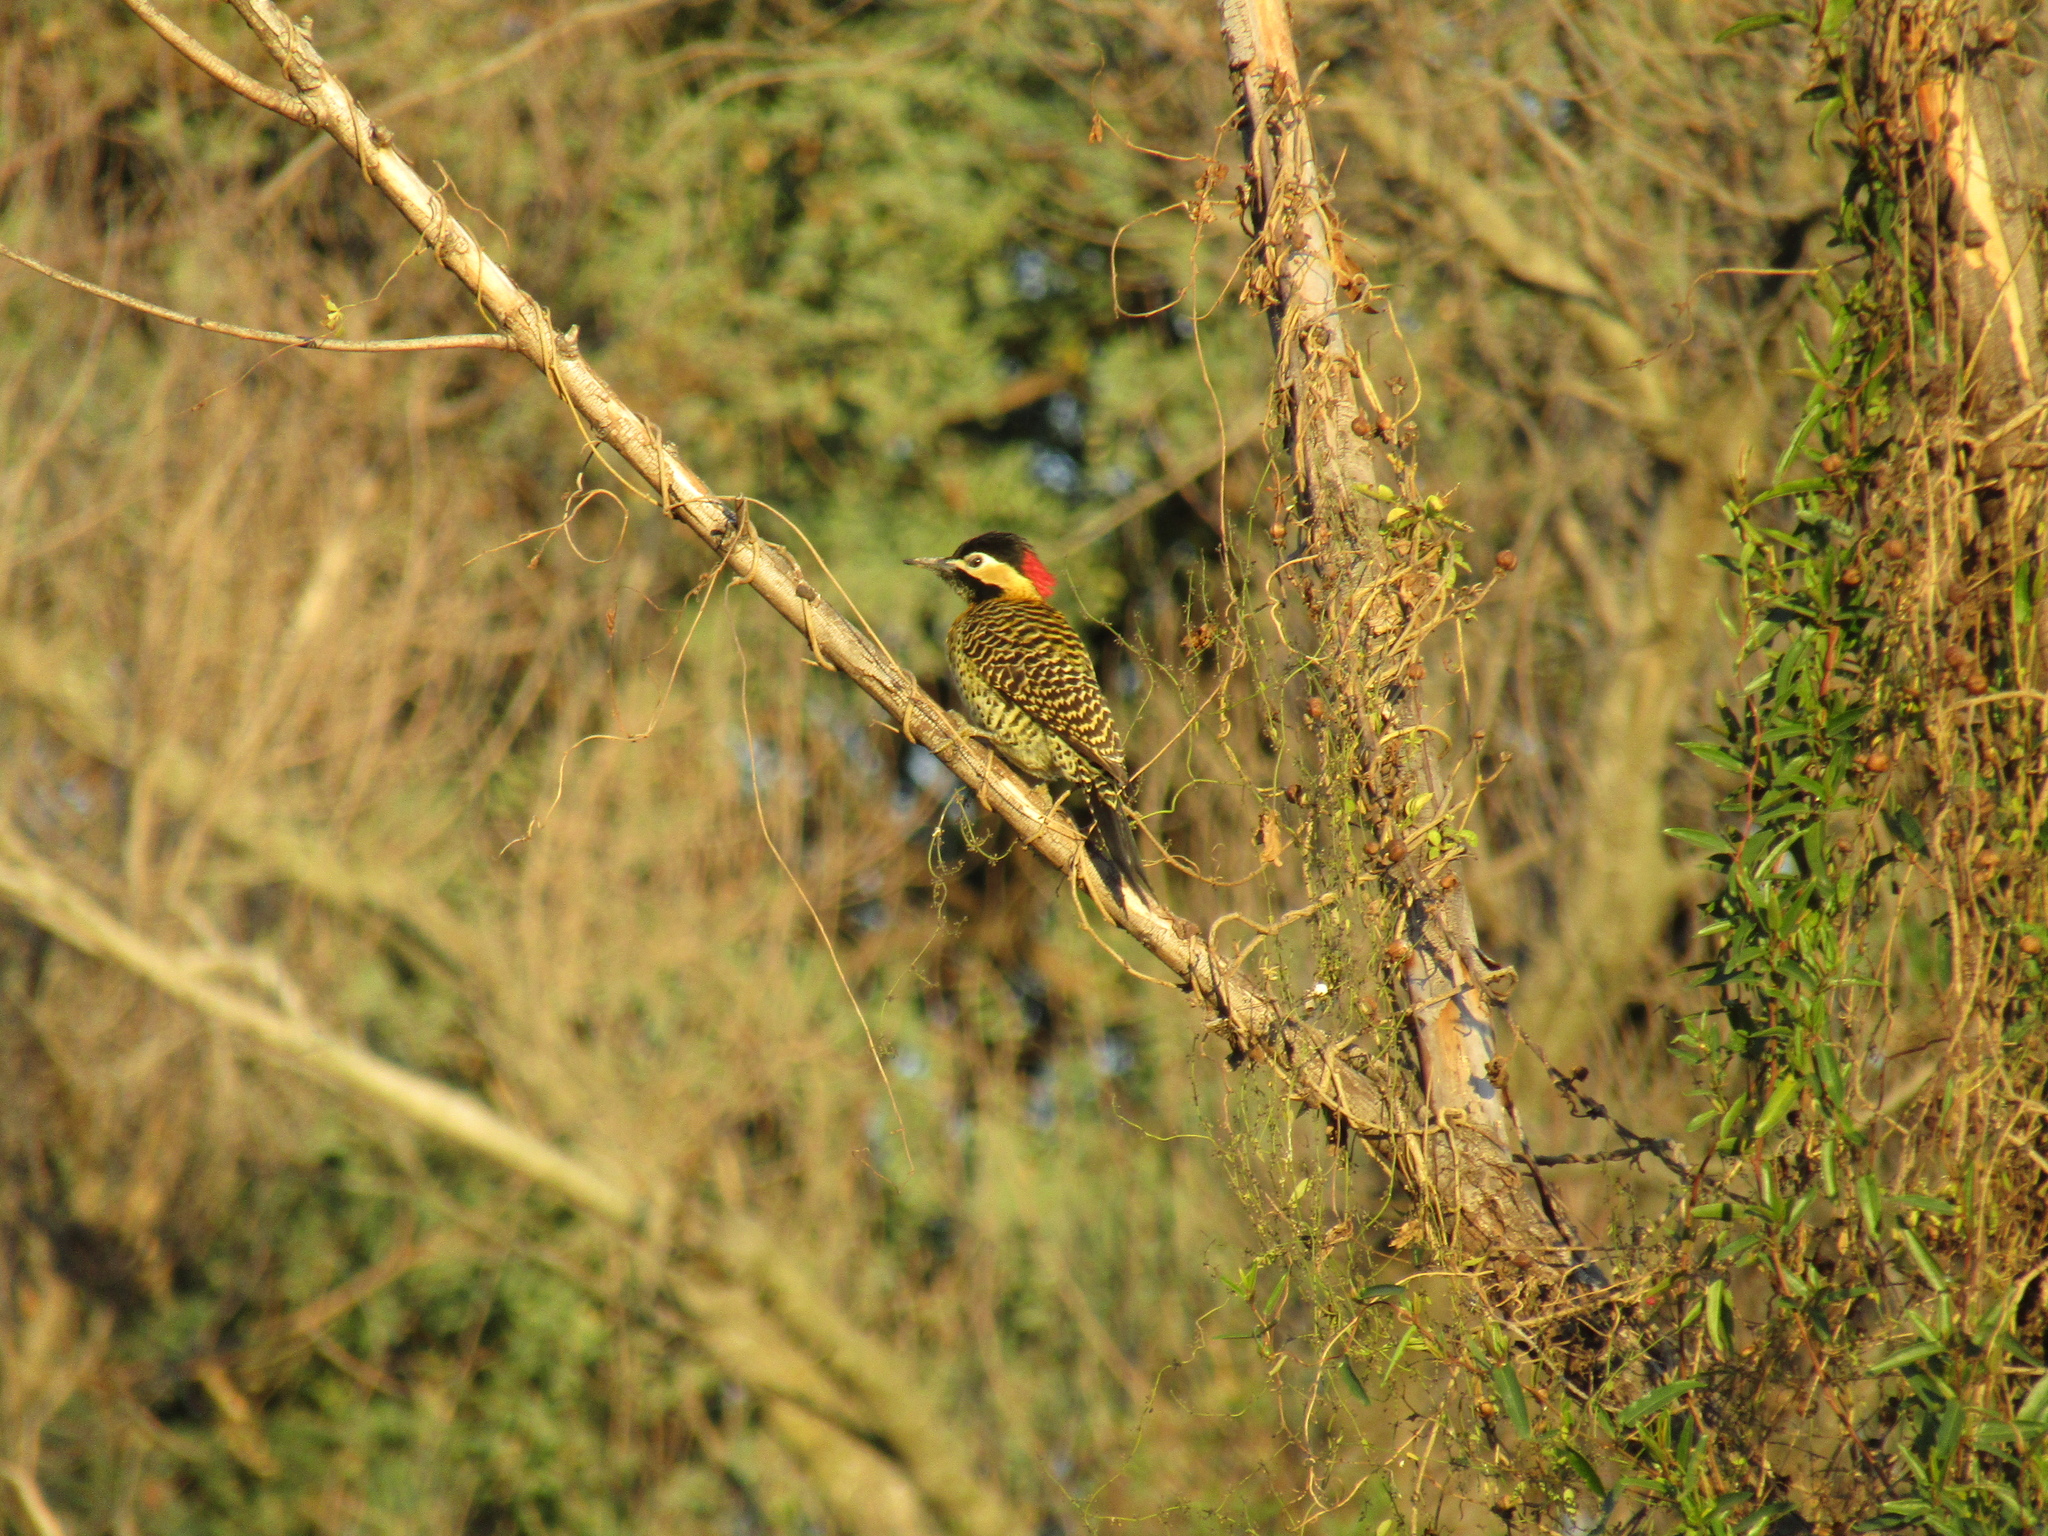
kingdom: Animalia
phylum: Chordata
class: Aves
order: Piciformes
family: Picidae
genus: Colaptes
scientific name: Colaptes melanochloros
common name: Green-barred woodpecker
